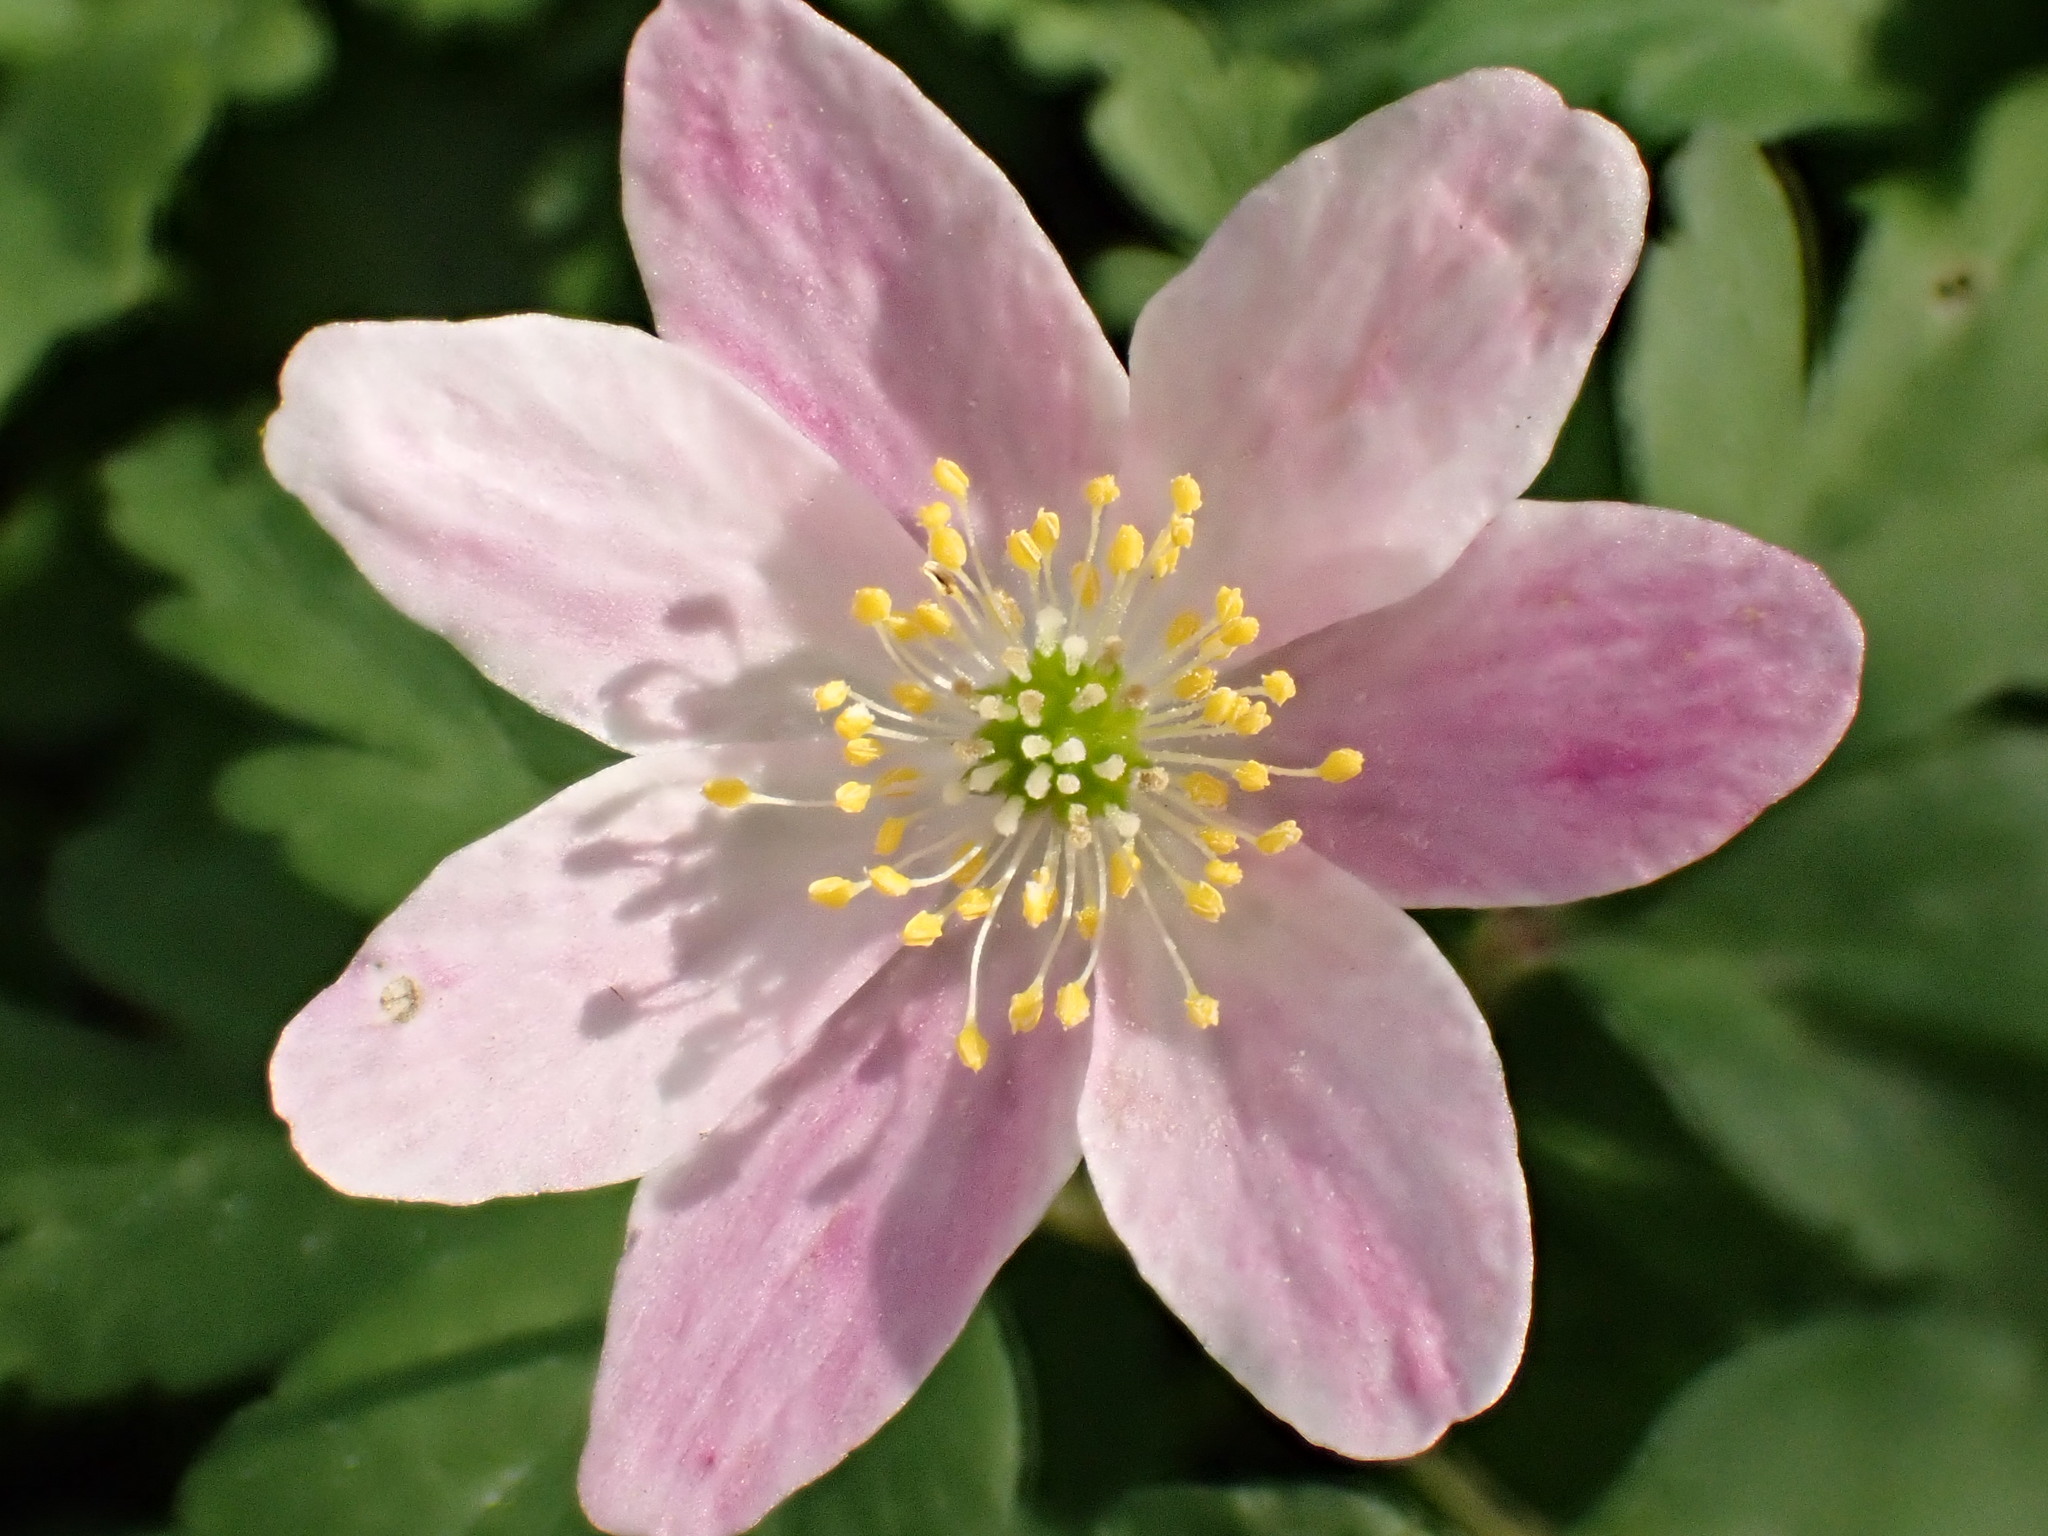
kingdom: Plantae
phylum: Tracheophyta
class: Magnoliopsida
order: Ranunculales
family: Ranunculaceae
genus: Anemone
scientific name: Anemone nemorosa
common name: Wood anemone
